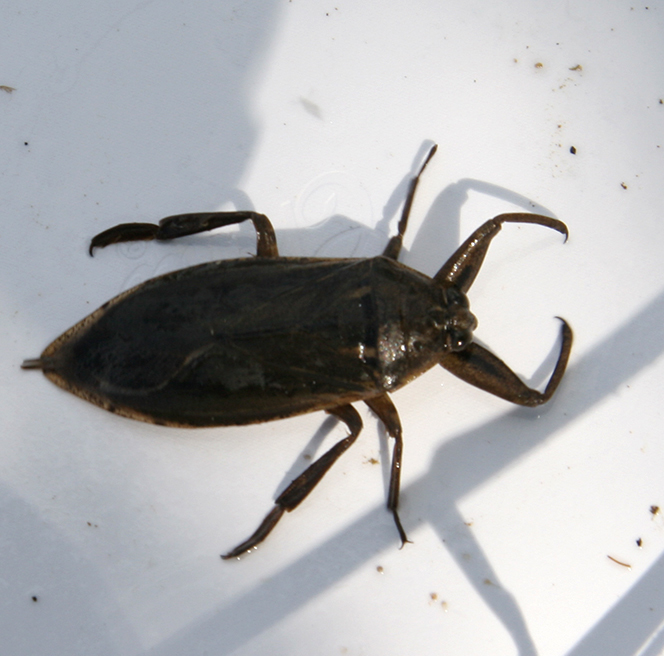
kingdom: Animalia
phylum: Arthropoda
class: Insecta
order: Hemiptera
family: Belostomatidae
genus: Lethocerus
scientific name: Lethocerus americanus
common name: Giant water bug
